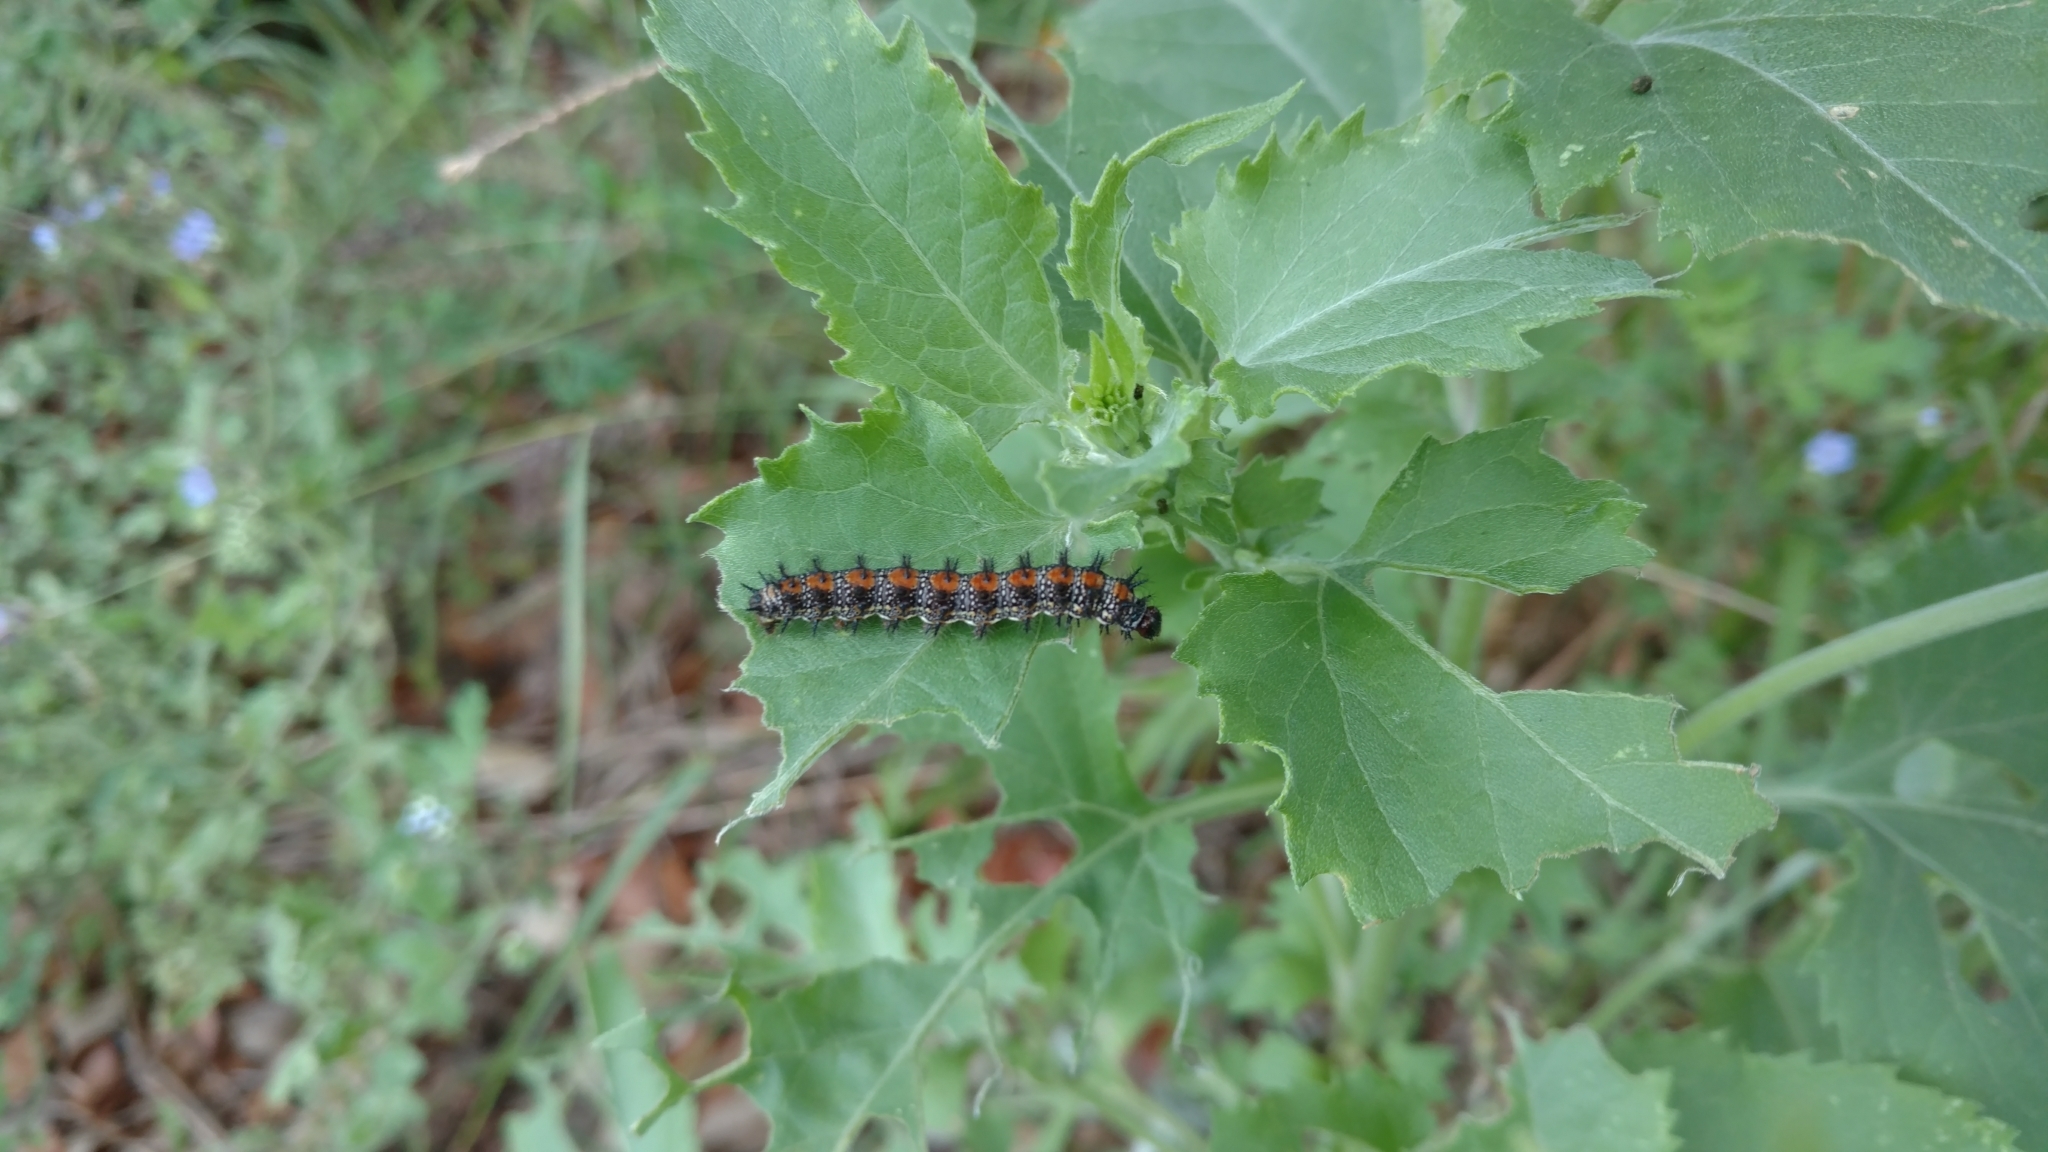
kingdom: Animalia
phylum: Arthropoda
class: Insecta
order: Lepidoptera
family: Nymphalidae
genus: Chlosyne
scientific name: Chlosyne lacinia
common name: Bordered patch
